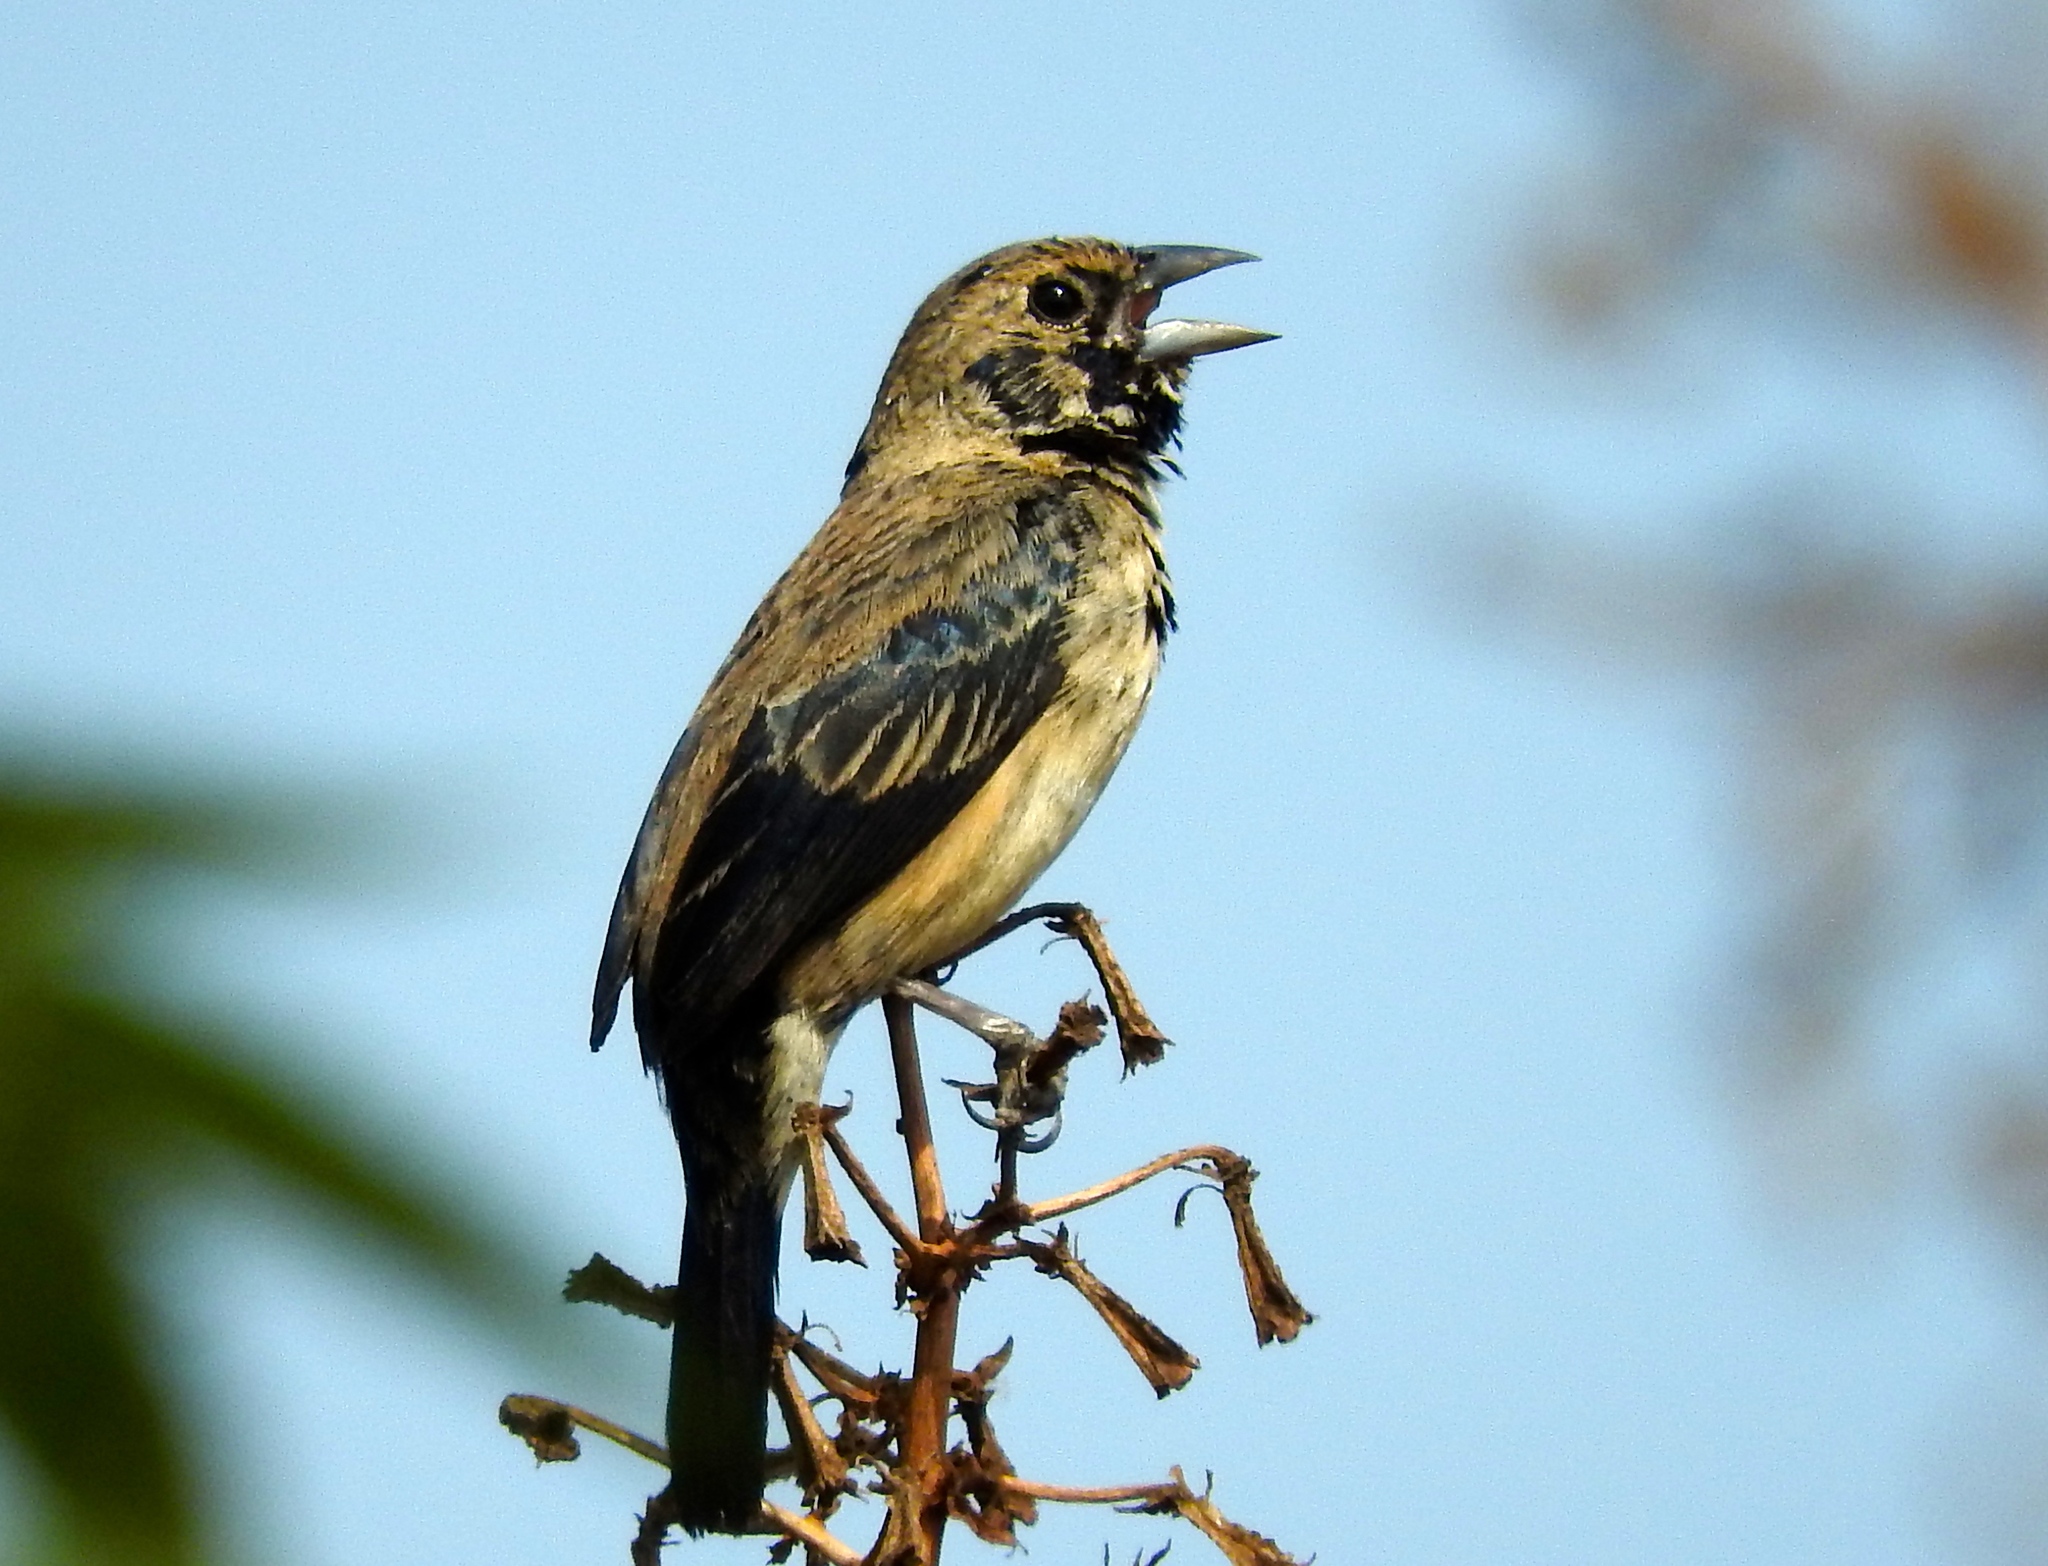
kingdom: Animalia
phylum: Chordata
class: Aves
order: Passeriformes
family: Thraupidae
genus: Volatinia
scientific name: Volatinia jacarina
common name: Blue-black grassquit
